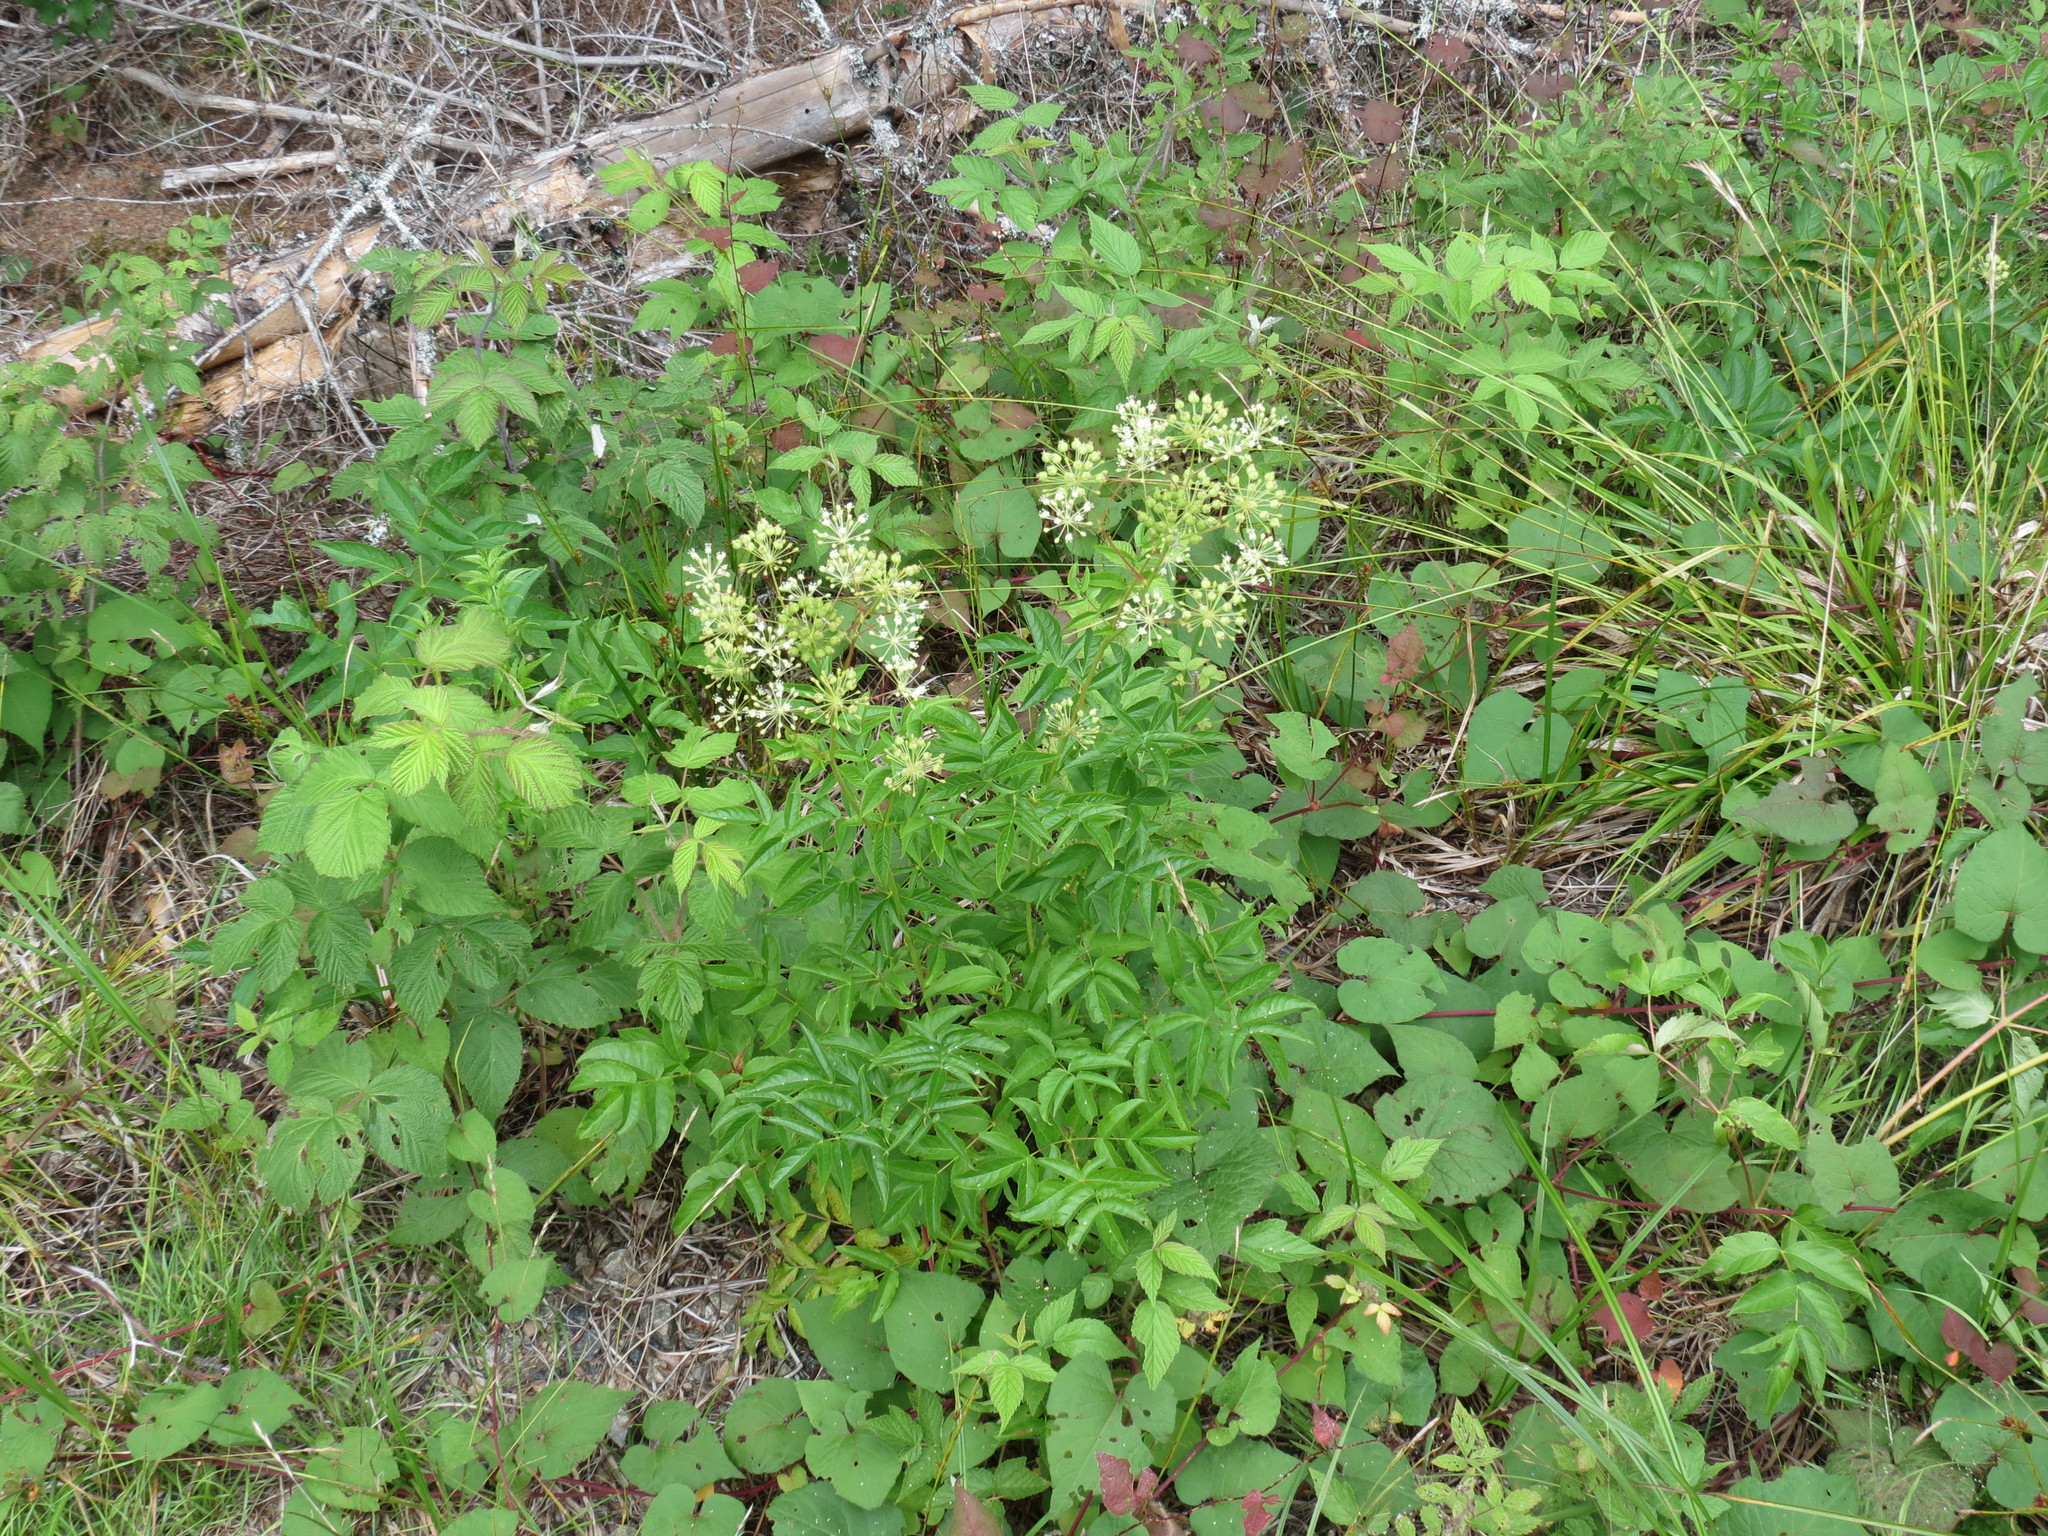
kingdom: Plantae
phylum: Tracheophyta
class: Magnoliopsida
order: Apiales
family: Araliaceae
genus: Aralia
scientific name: Aralia hispida
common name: Bristly sarsaparilla
